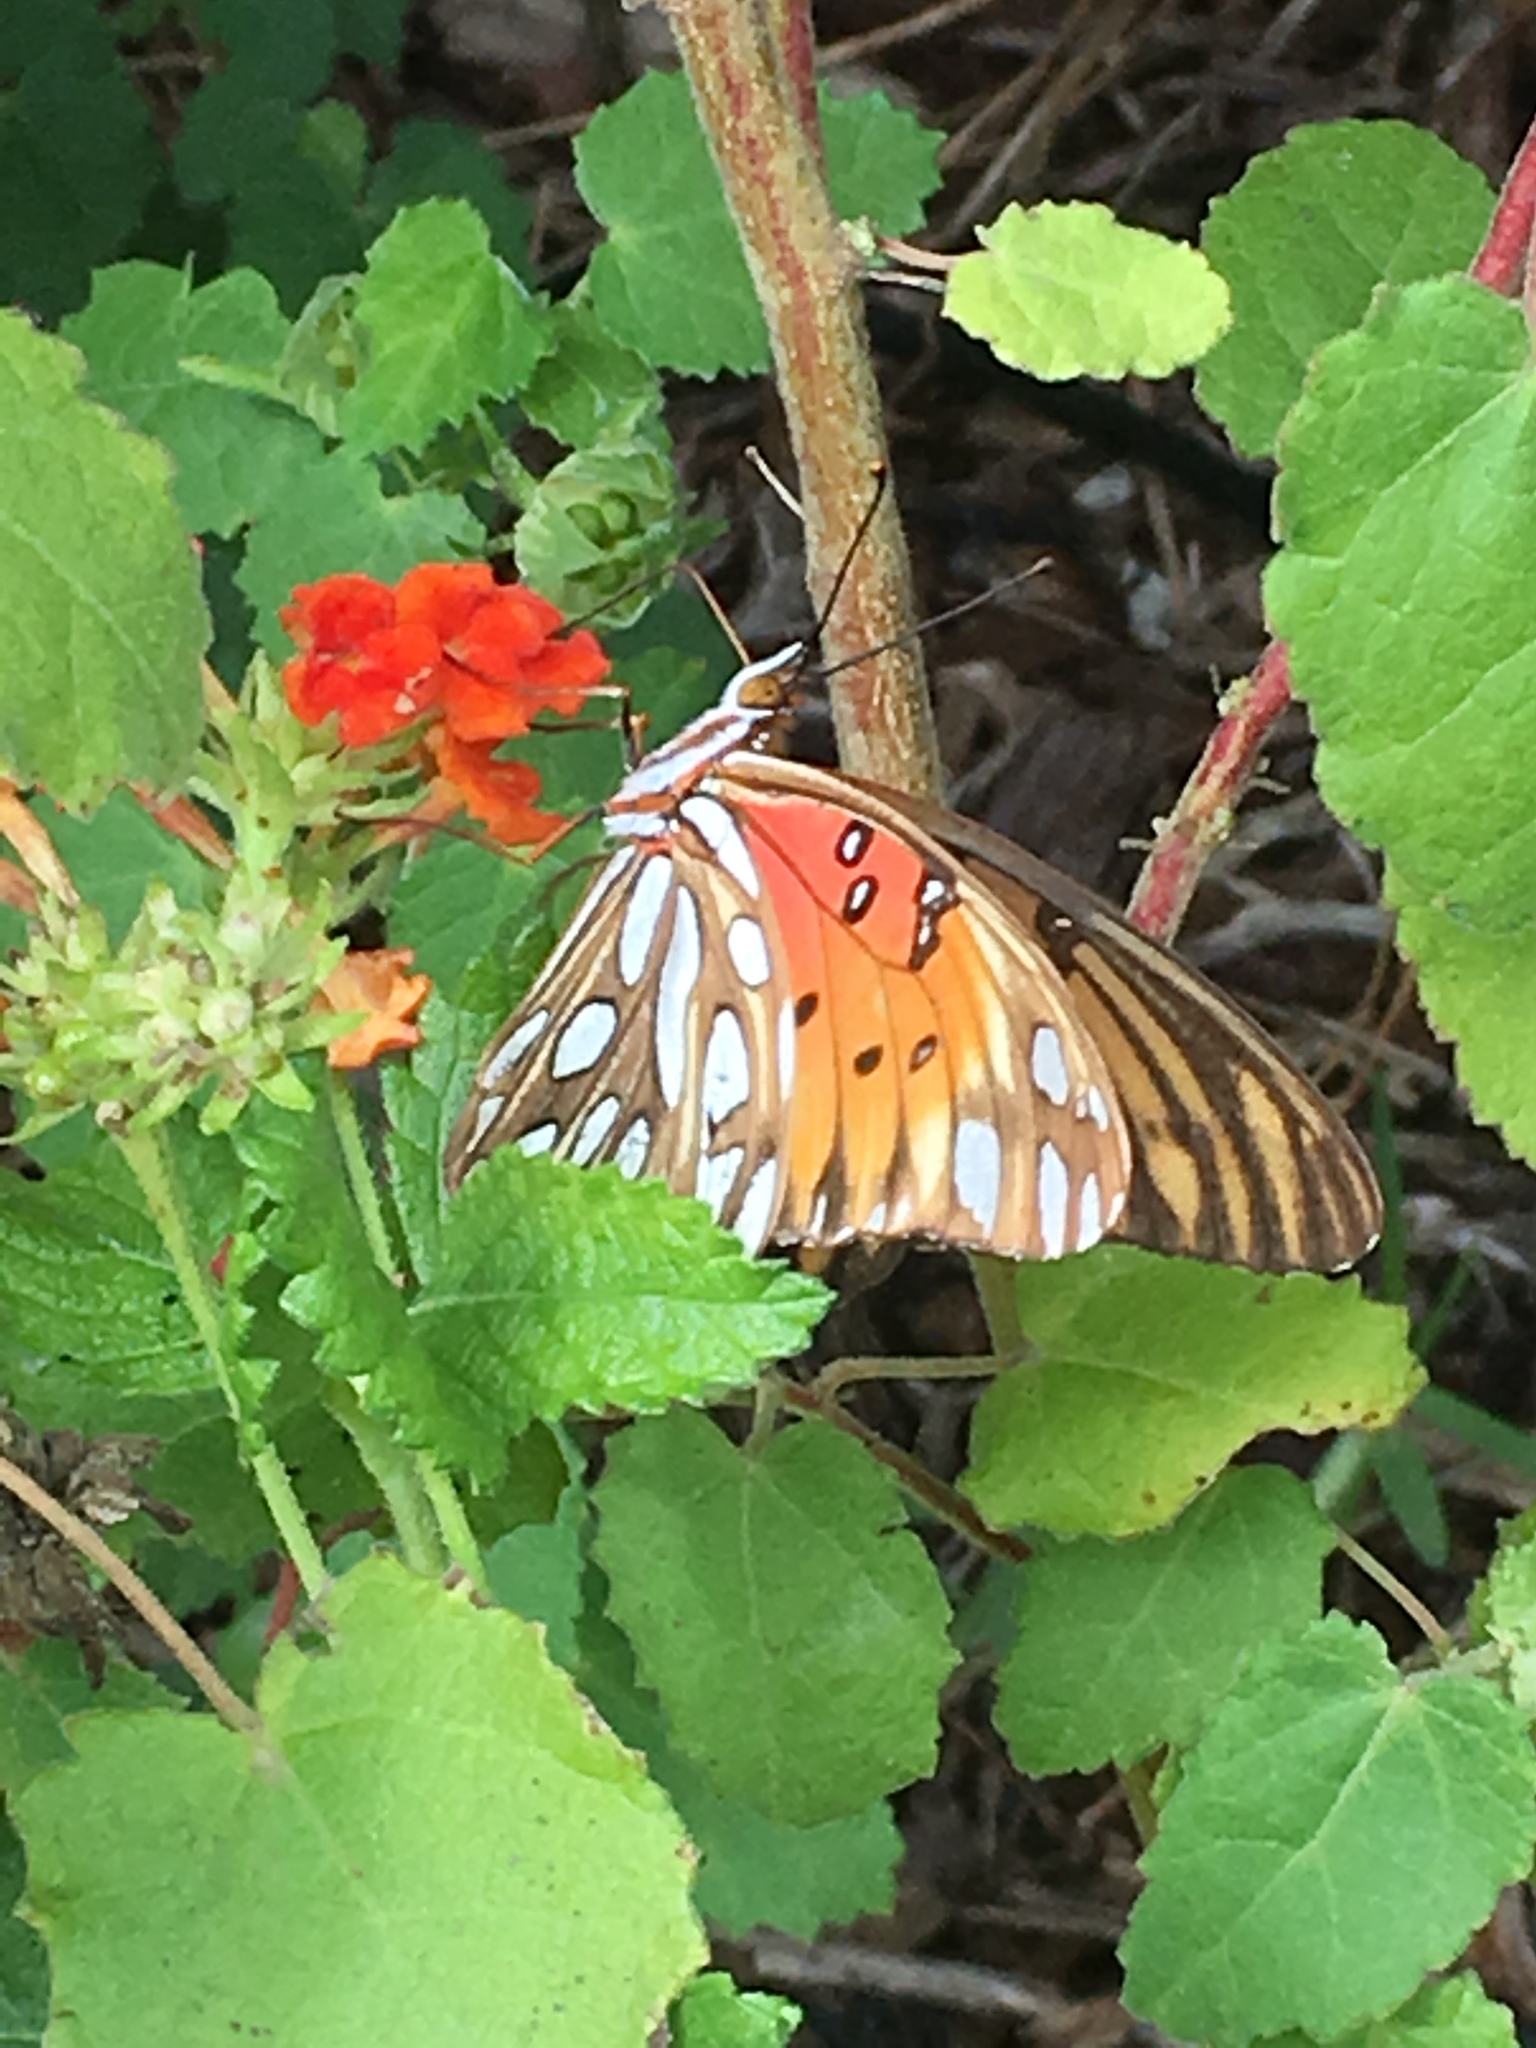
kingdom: Animalia
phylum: Arthropoda
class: Insecta
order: Lepidoptera
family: Nymphalidae
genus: Dione
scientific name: Dione vanillae
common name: Gulf fritillary
